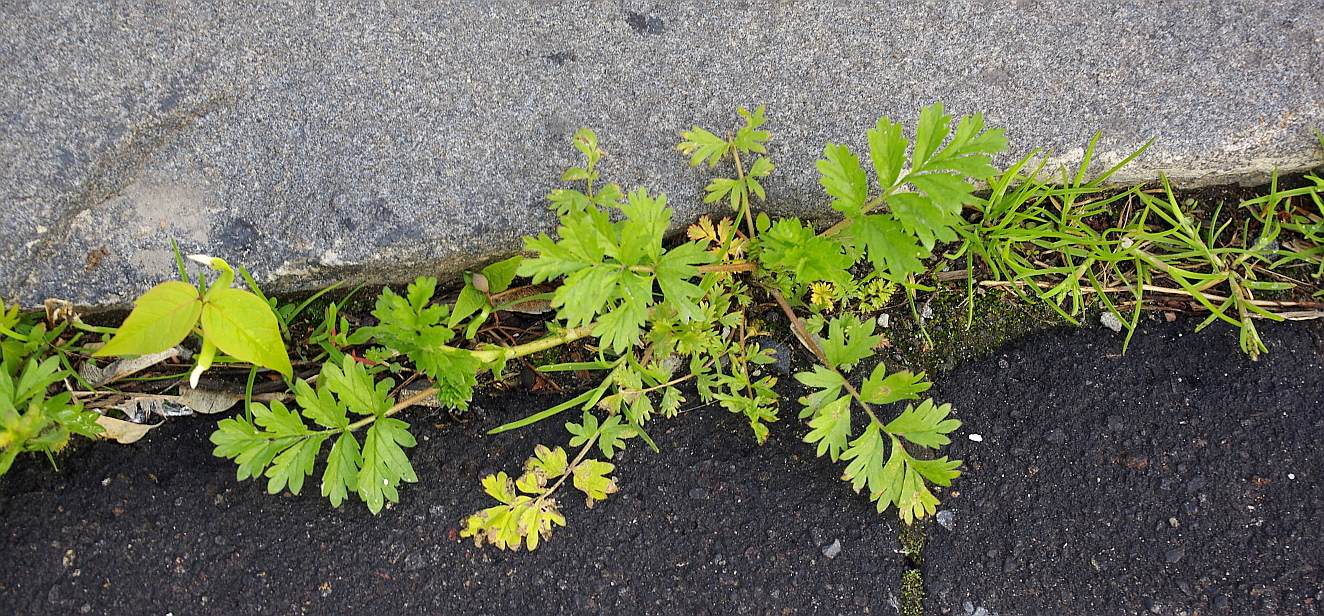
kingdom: Plantae
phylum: Tracheophyta
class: Magnoliopsida
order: Rosales
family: Rosaceae
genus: Potentilla
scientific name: Potentilla supina
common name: Prostrate cinquefoil
